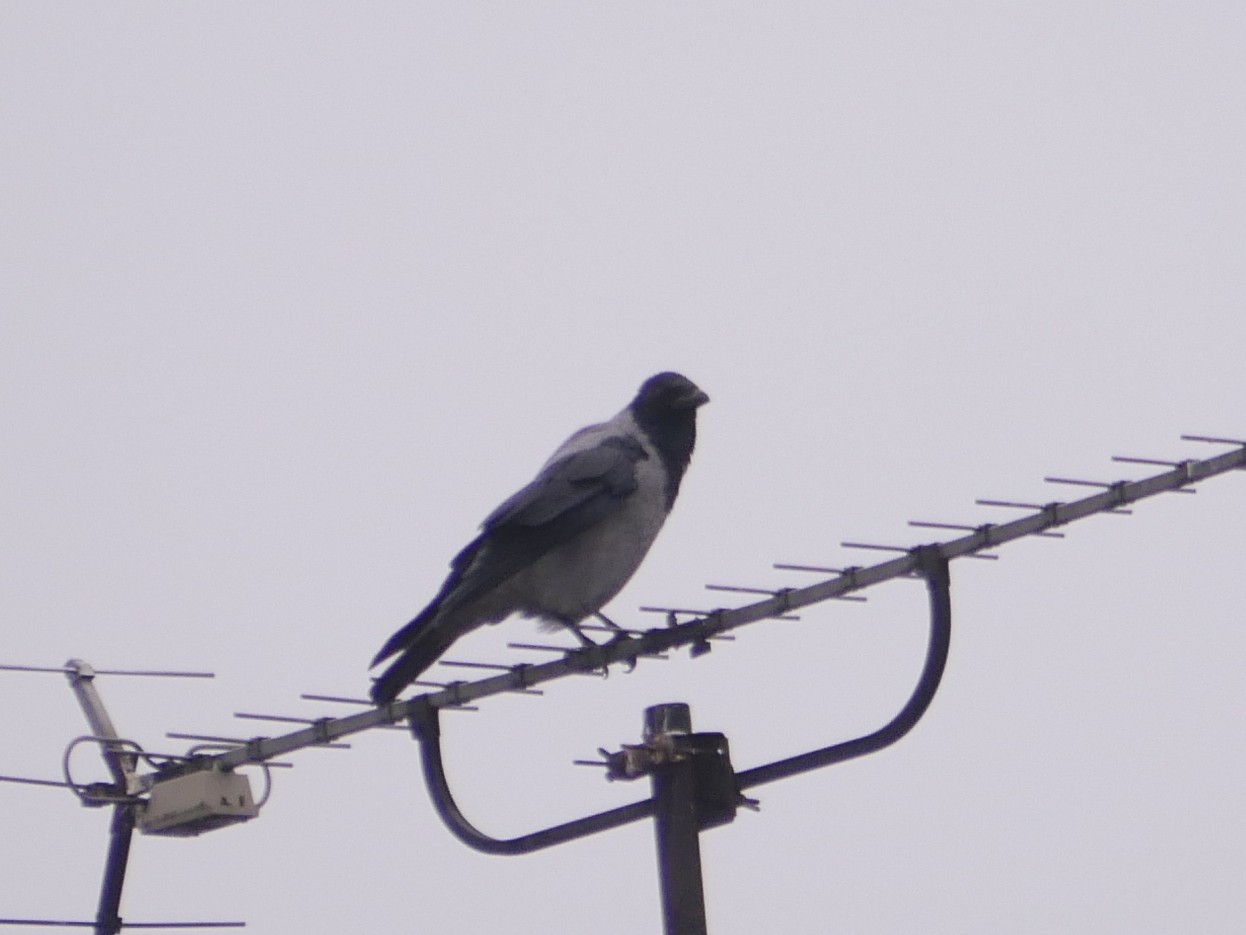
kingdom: Animalia
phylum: Chordata
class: Aves
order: Passeriformes
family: Corvidae
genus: Corvus
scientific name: Corvus cornix
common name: Hooded crow
